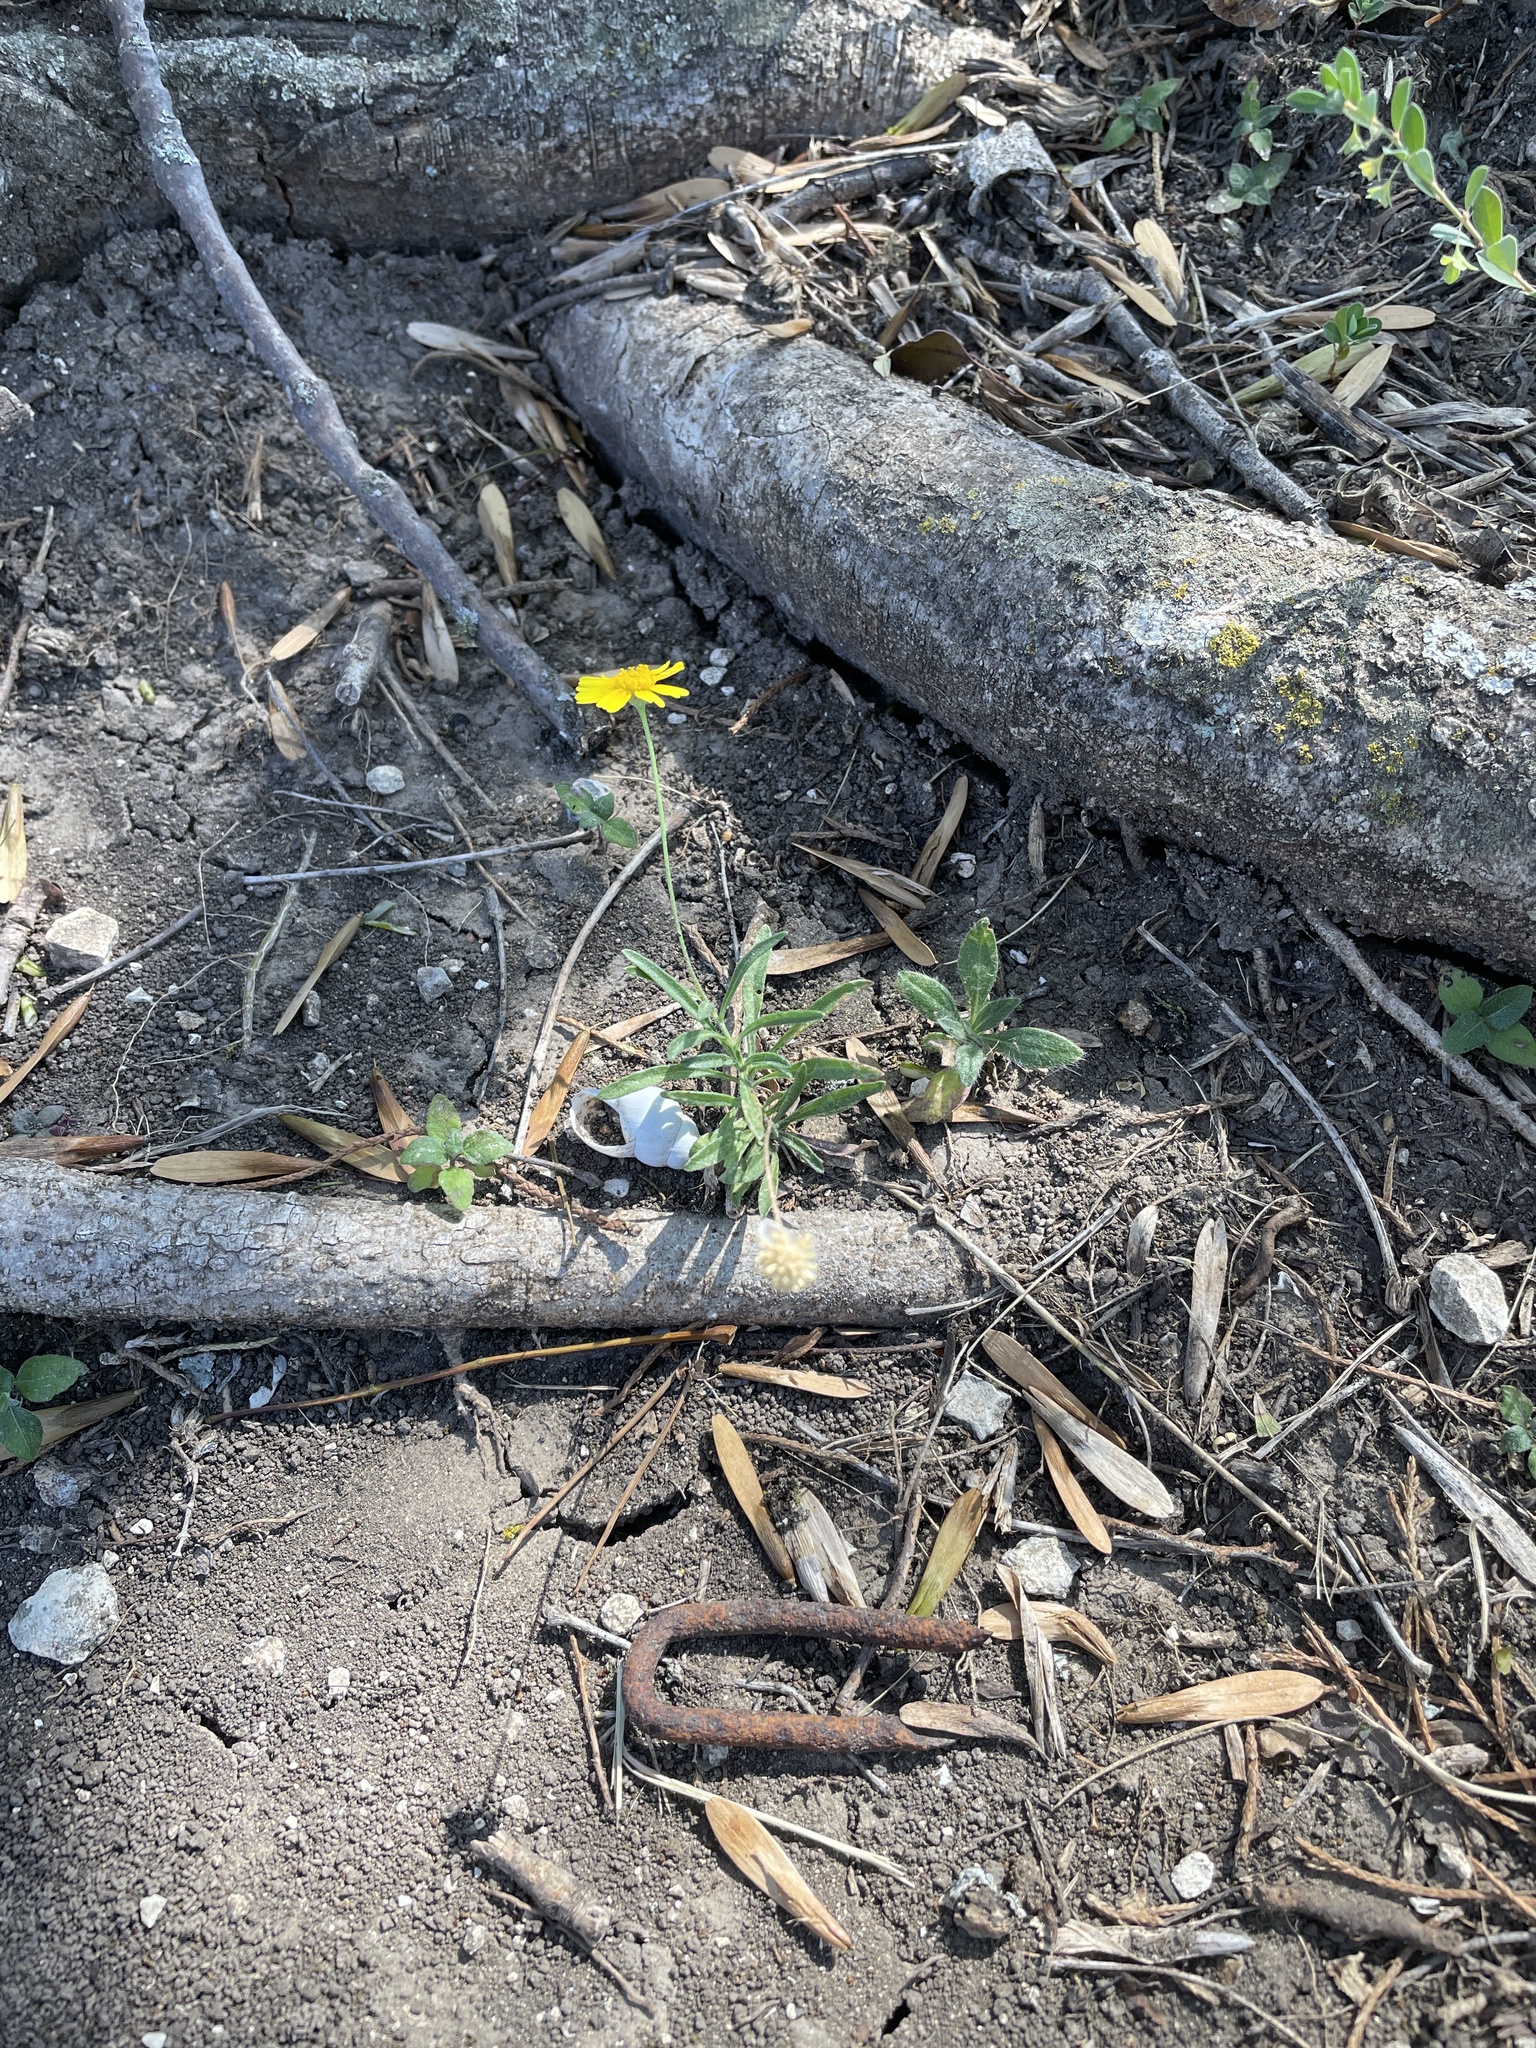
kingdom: Plantae
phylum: Tracheophyta
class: Magnoliopsida
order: Asterales
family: Asteraceae
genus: Tetraneuris
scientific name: Tetraneuris linearifolia
